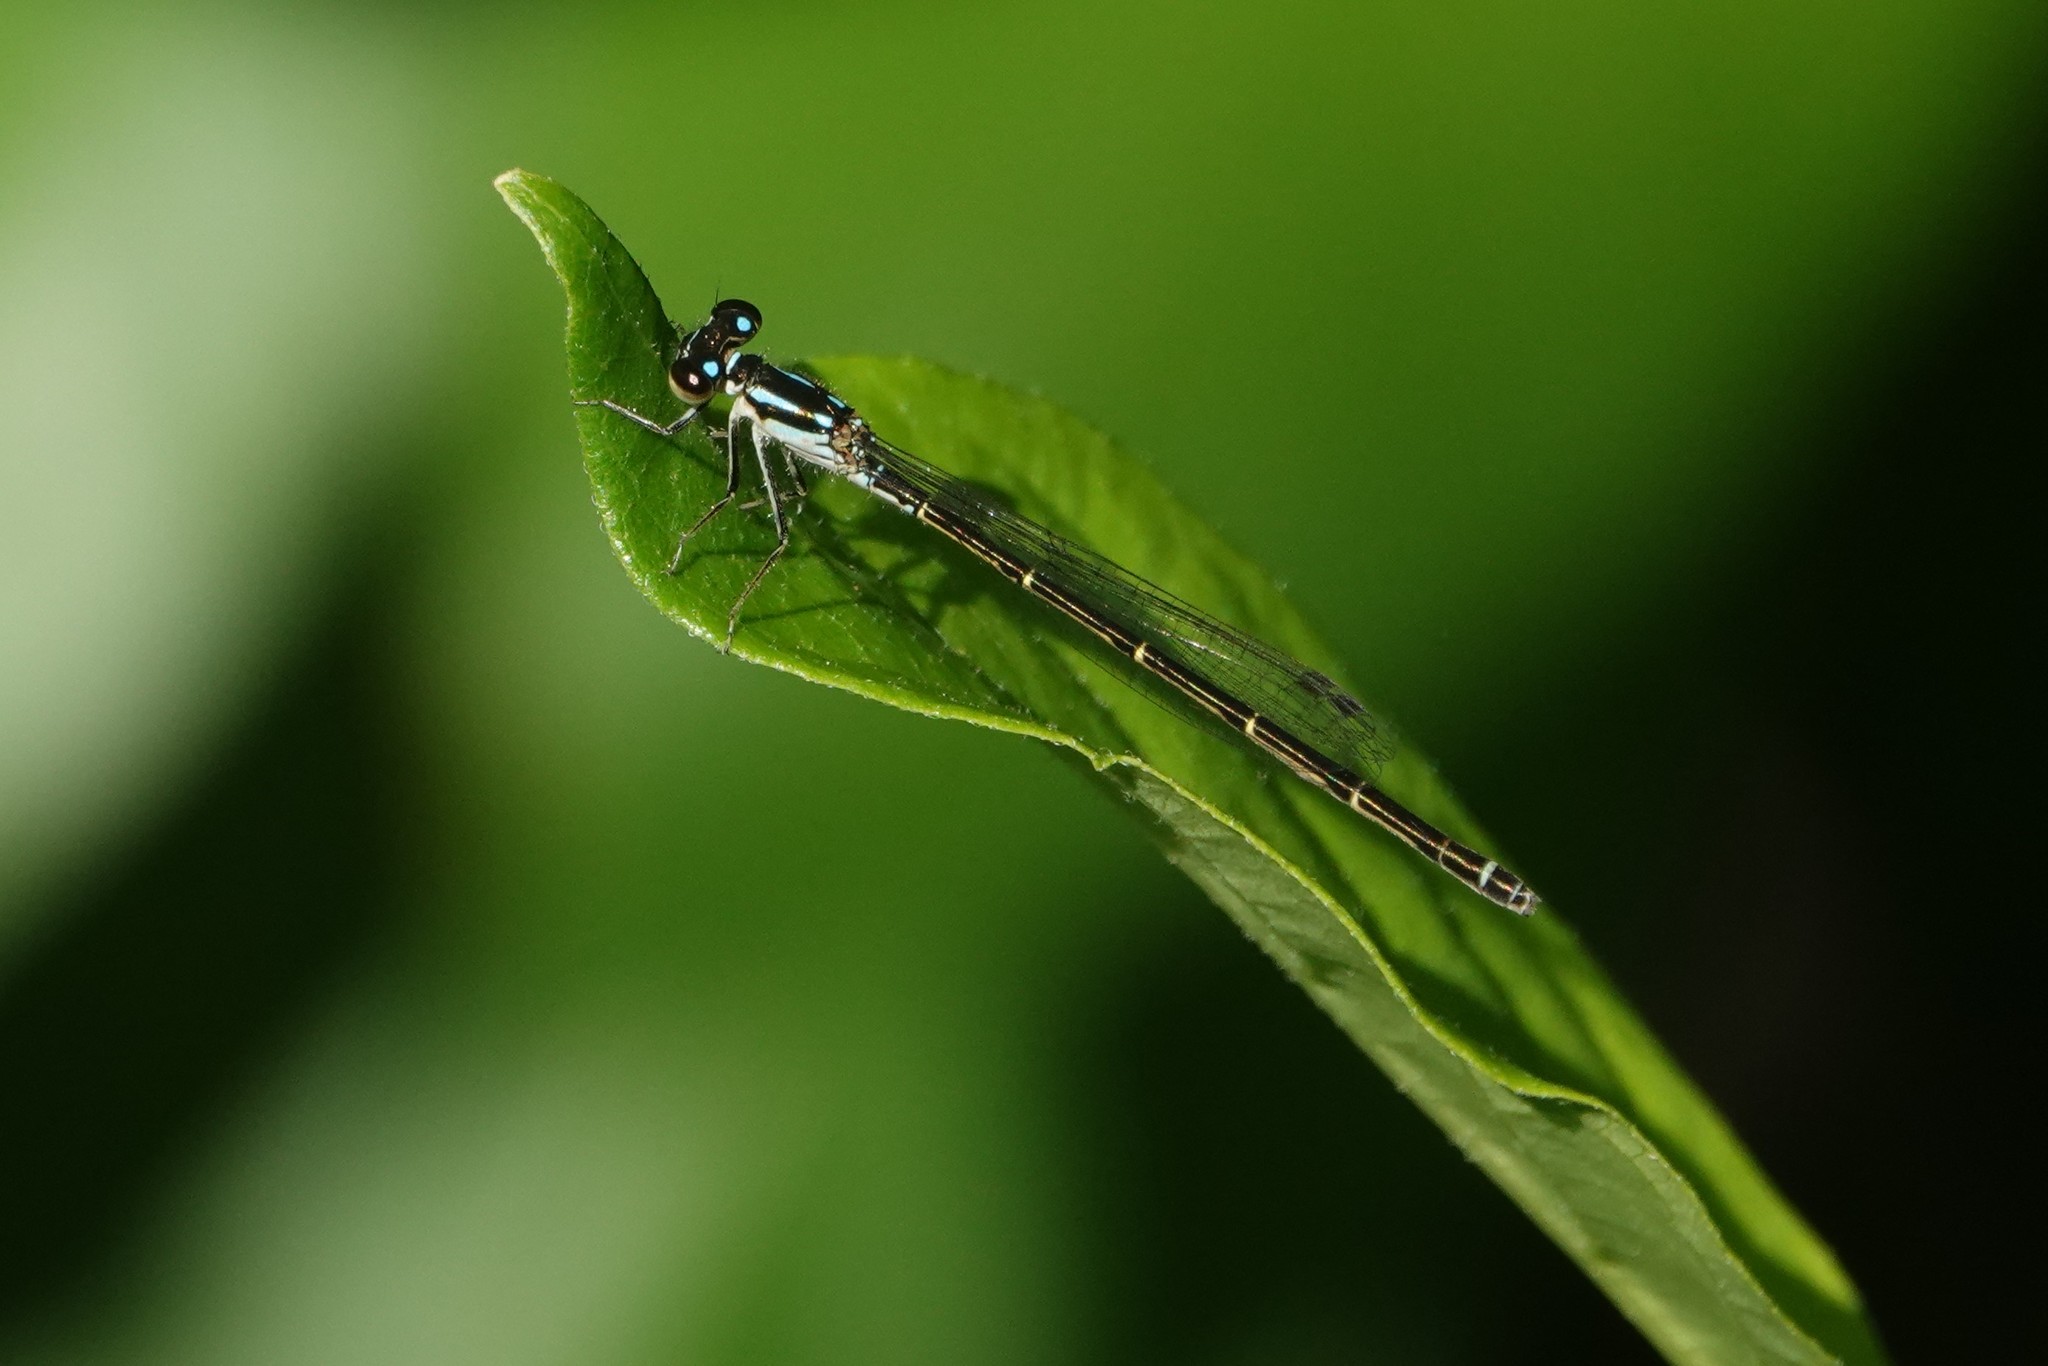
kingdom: Animalia
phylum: Arthropoda
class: Insecta
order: Odonata
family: Coenagrionidae
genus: Ischnura
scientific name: Ischnura posita
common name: Fragile forktail
